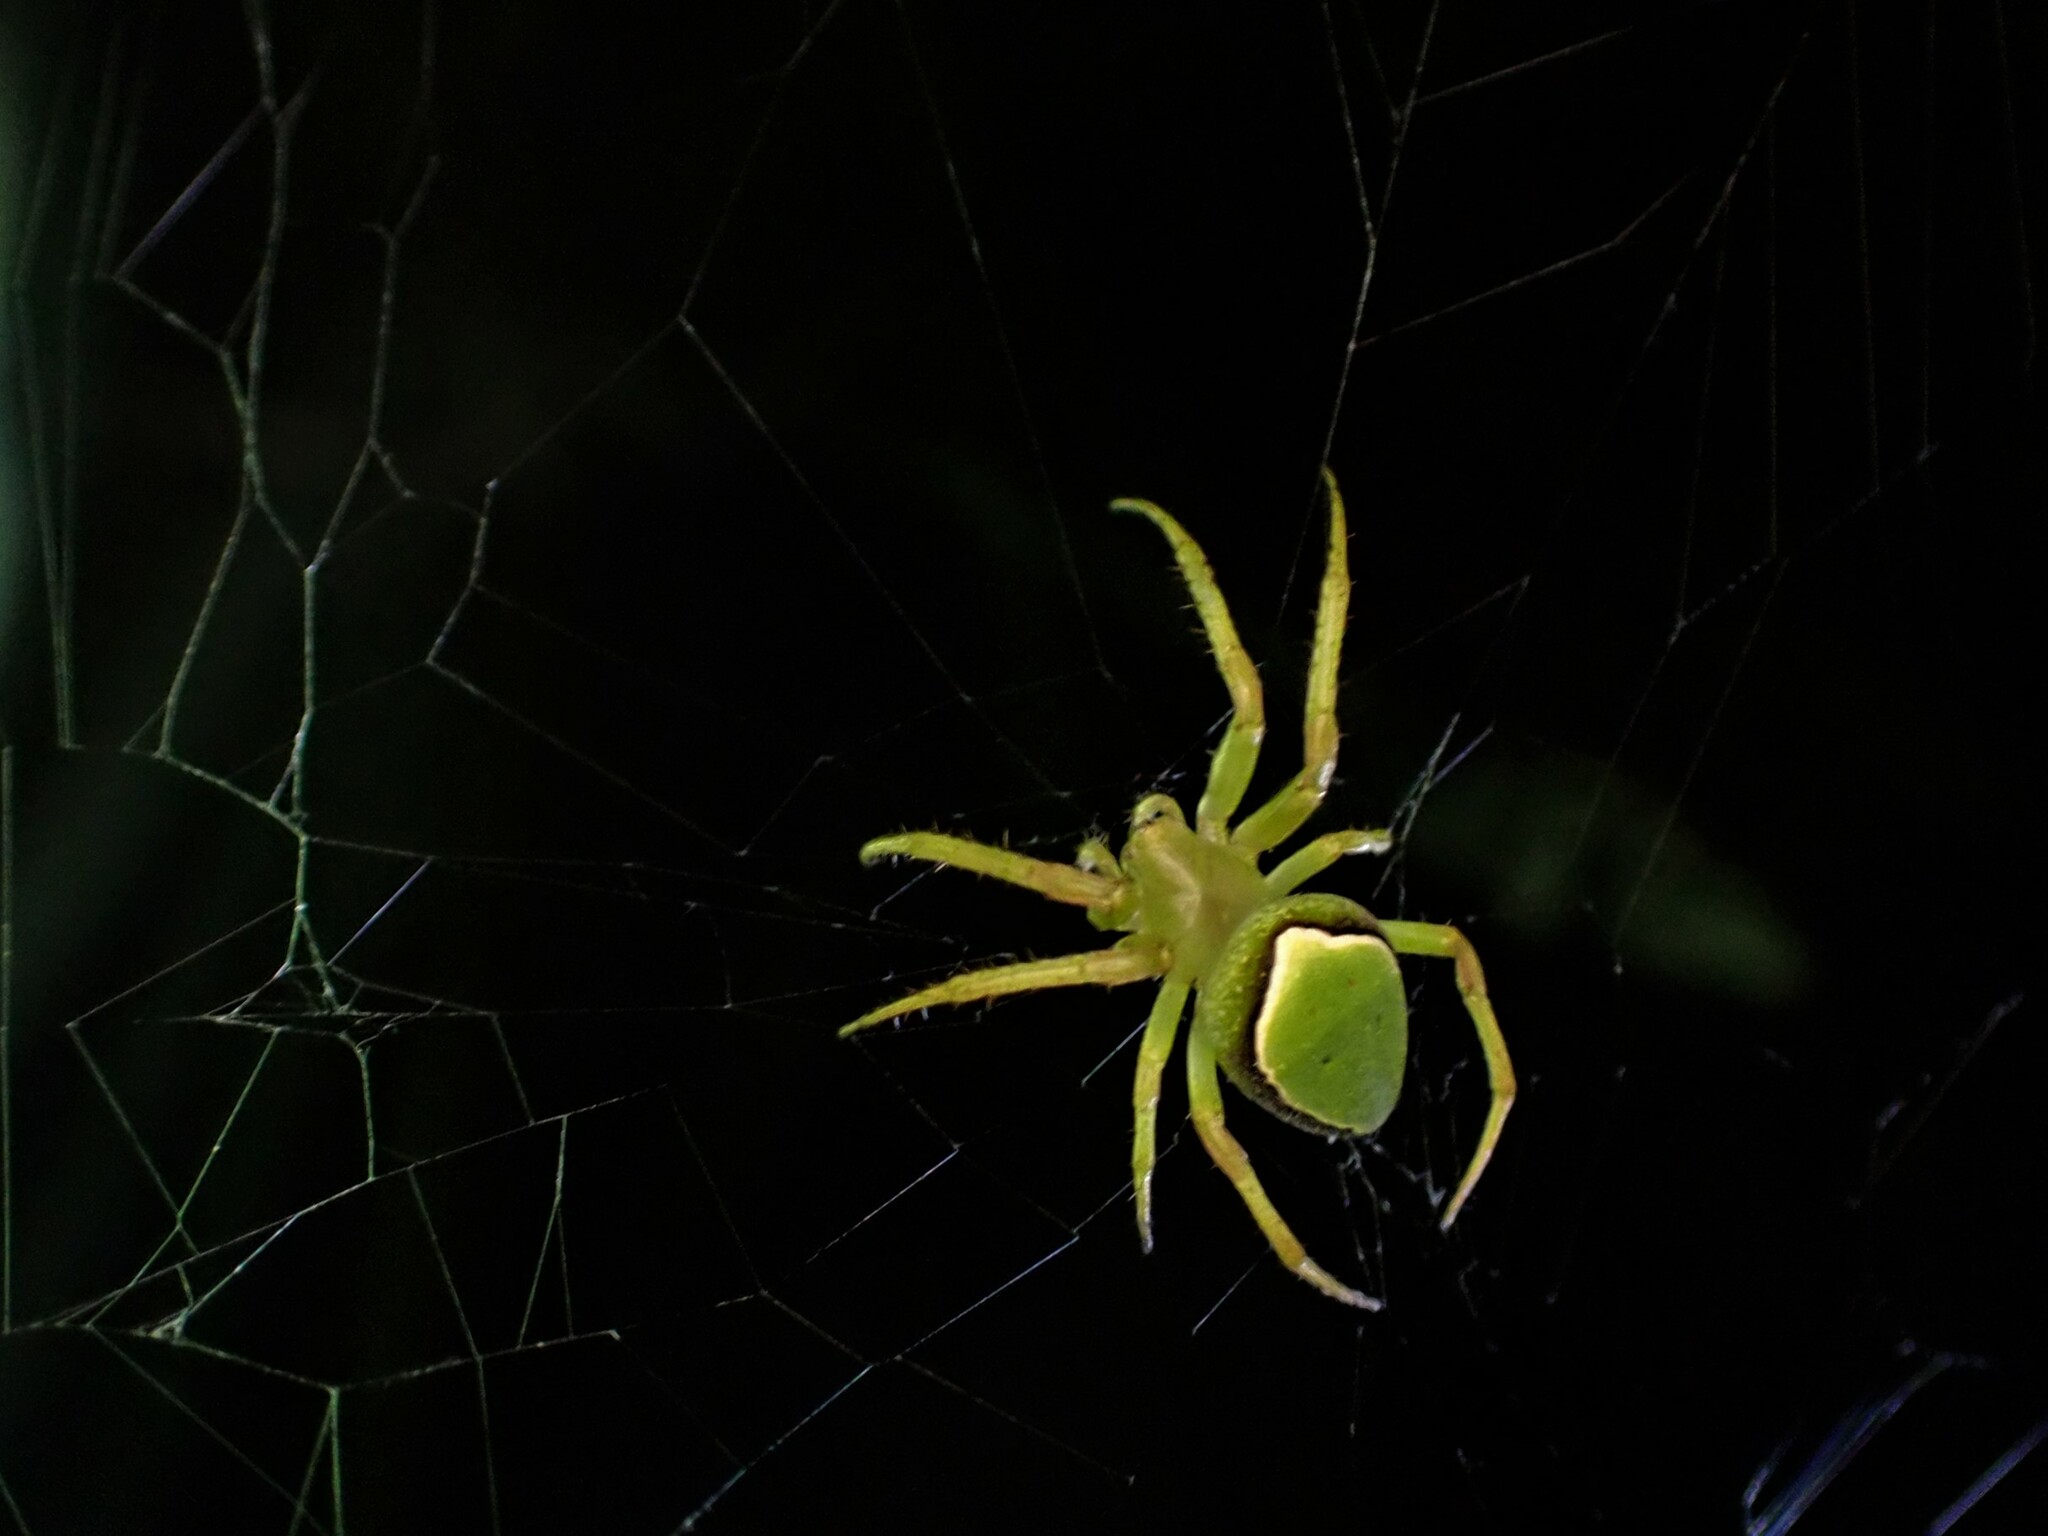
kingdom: Animalia
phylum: Arthropoda
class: Arachnida
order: Araneae
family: Araneidae
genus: Colaranea
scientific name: Colaranea viriditas
